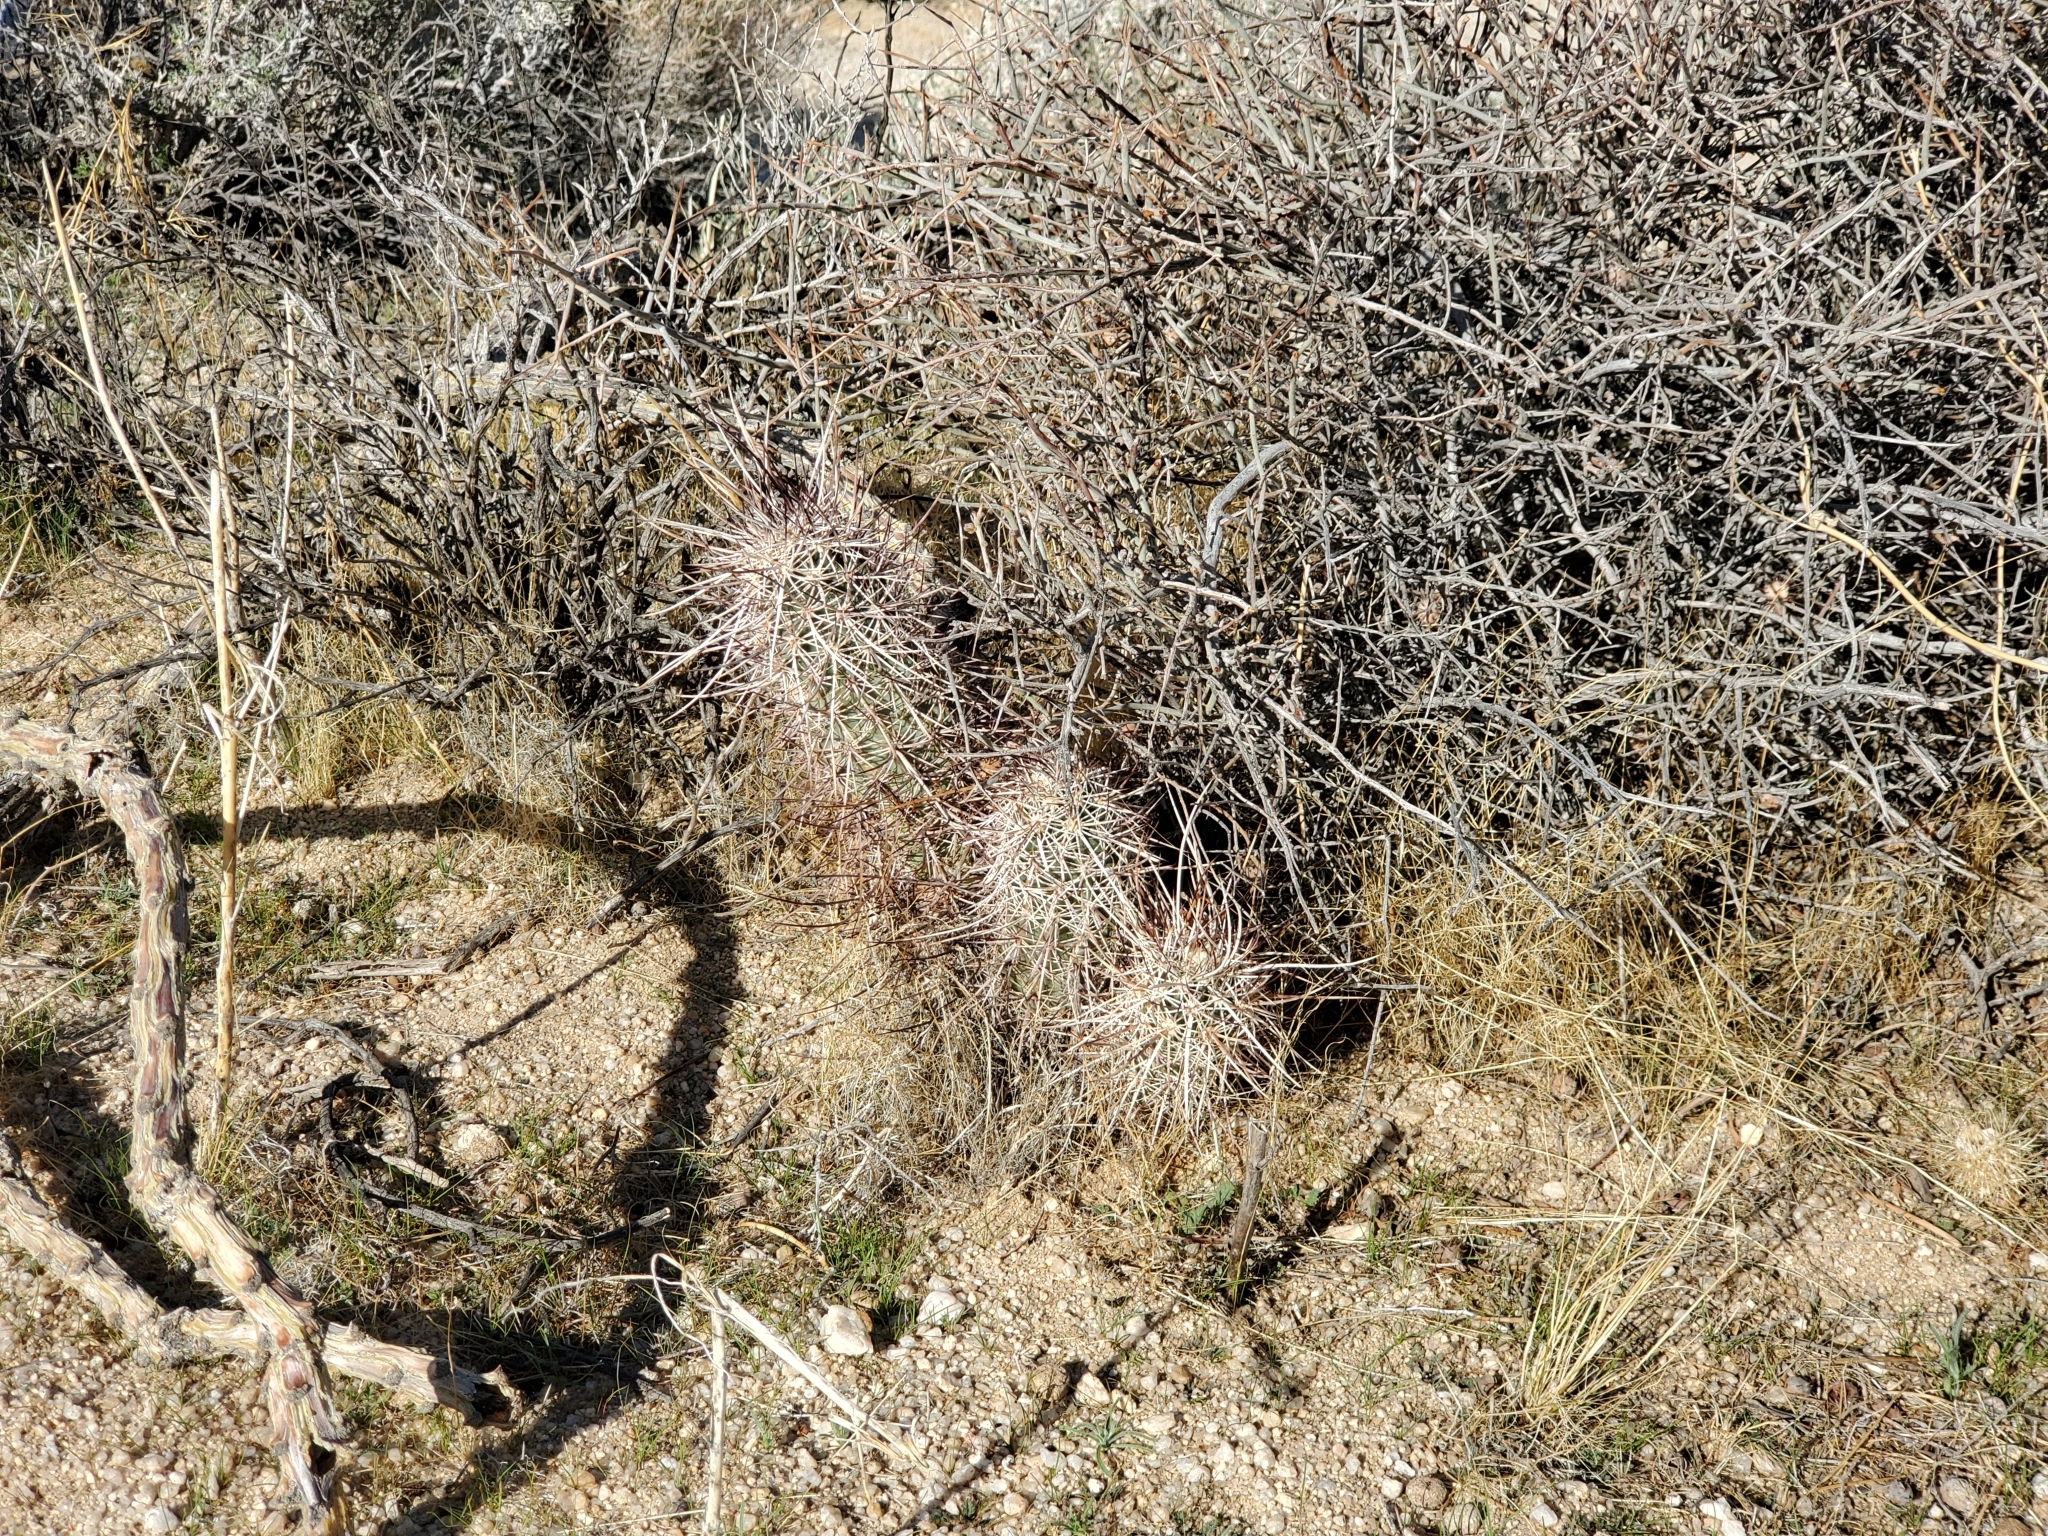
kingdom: Plantae
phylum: Tracheophyta
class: Magnoliopsida
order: Caryophyllales
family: Cactaceae
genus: Echinocereus
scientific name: Echinocereus engelmannii
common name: Engelmann's hedgehog cactus
